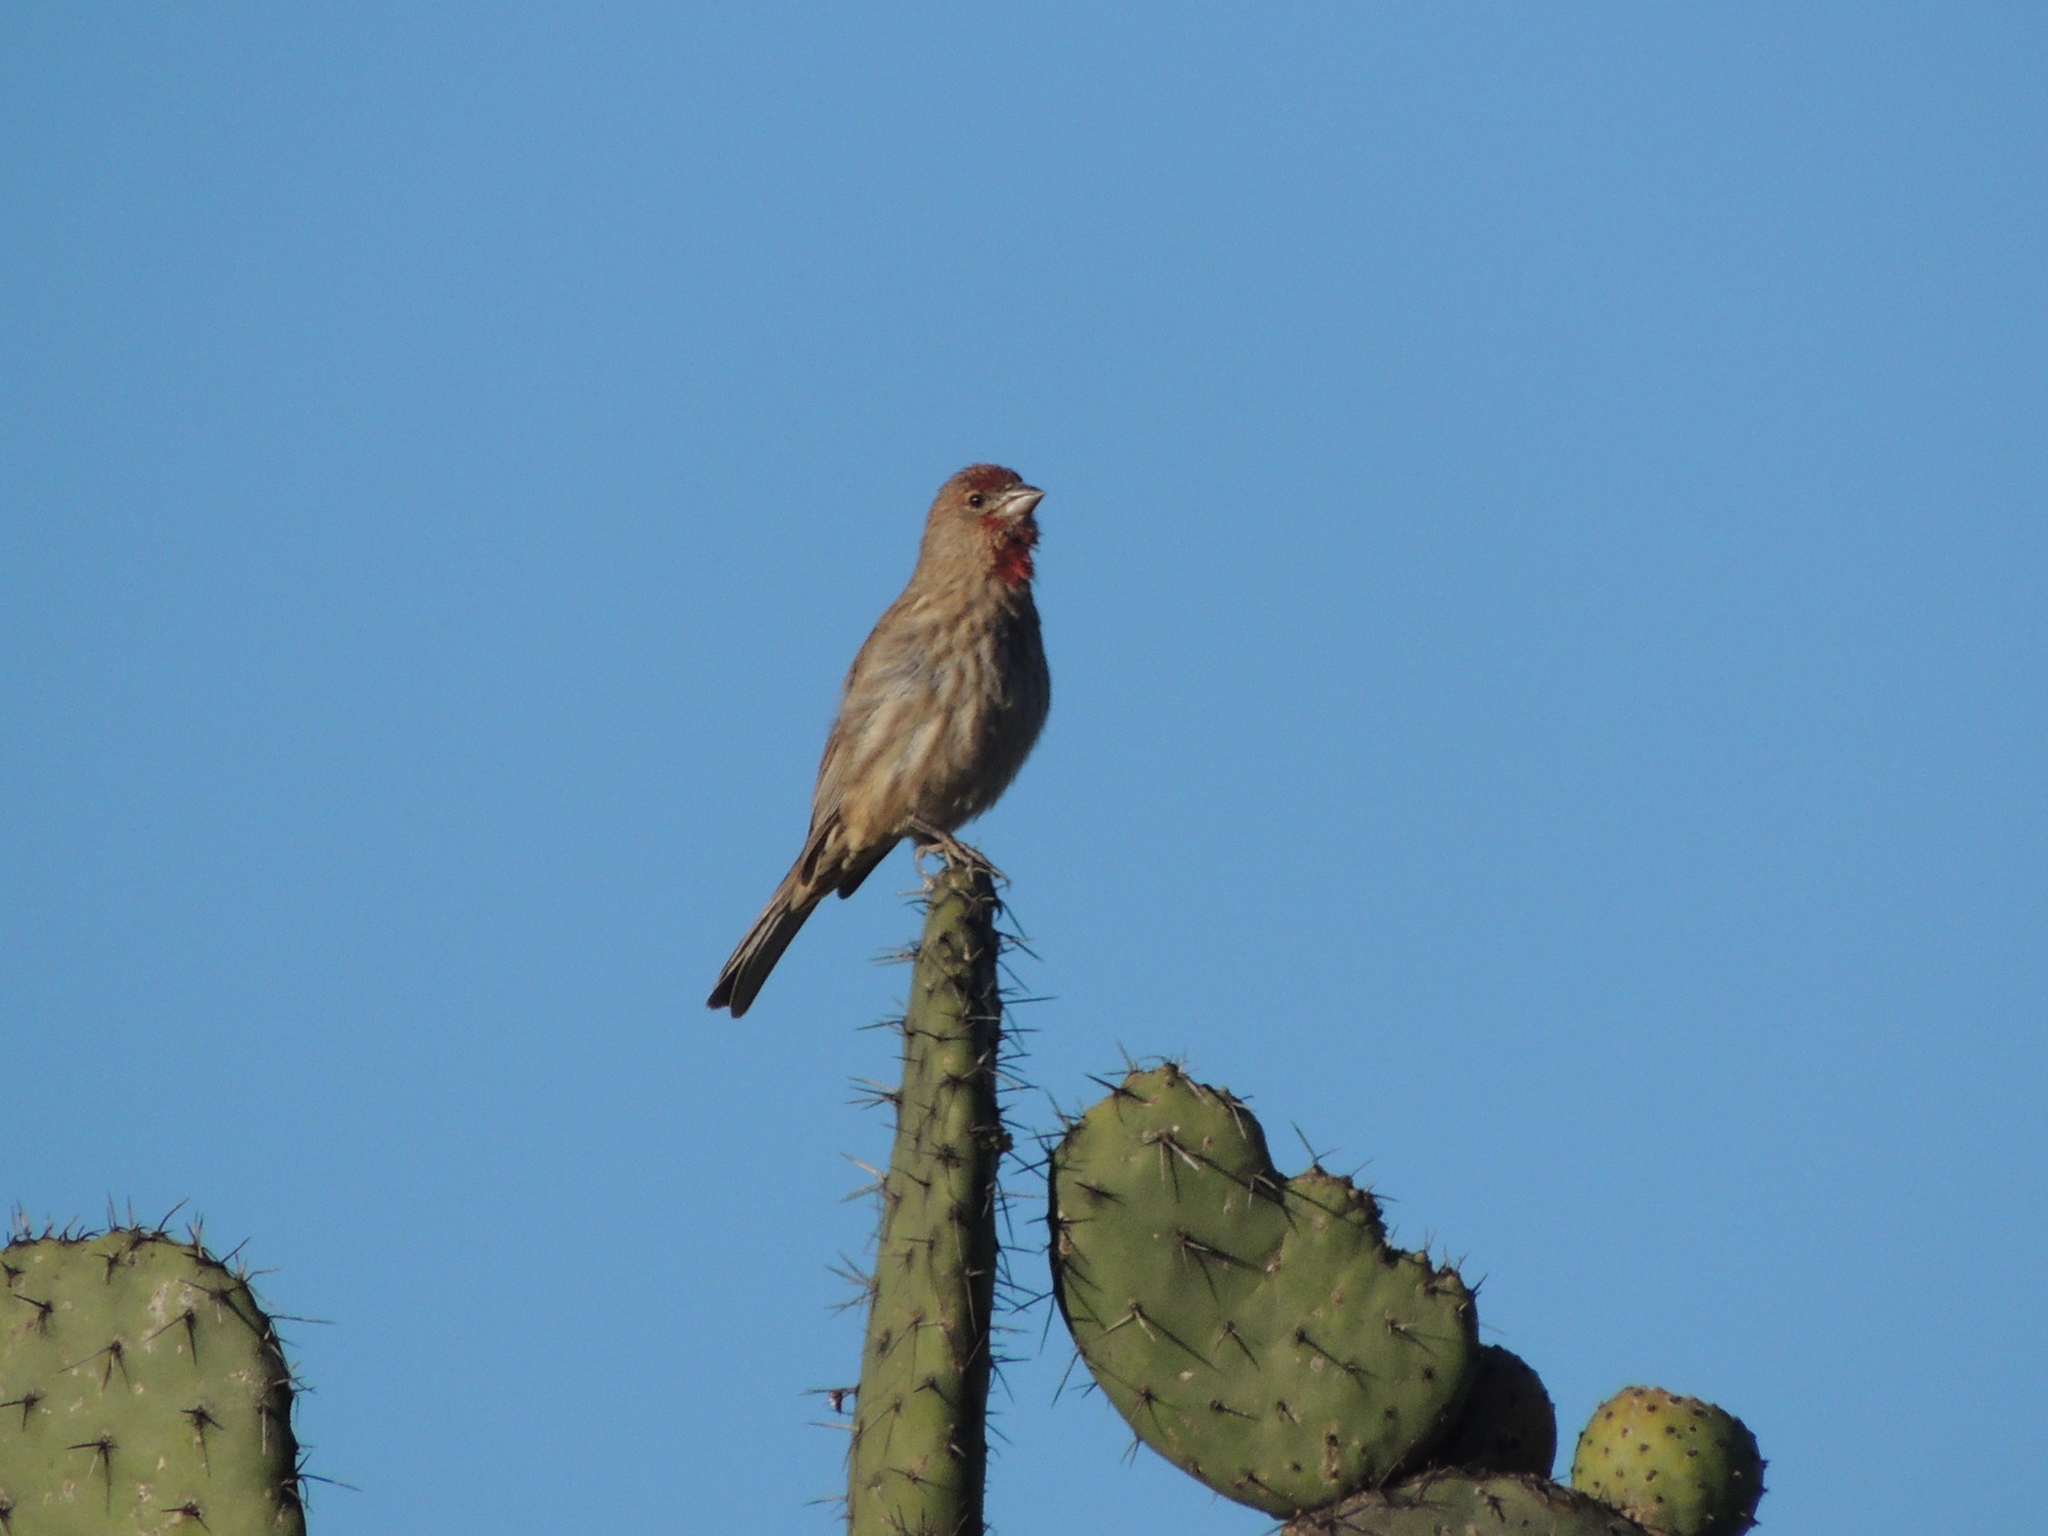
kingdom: Animalia
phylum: Chordata
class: Aves
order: Passeriformes
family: Fringillidae
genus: Haemorhous
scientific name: Haemorhous mexicanus
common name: House finch
